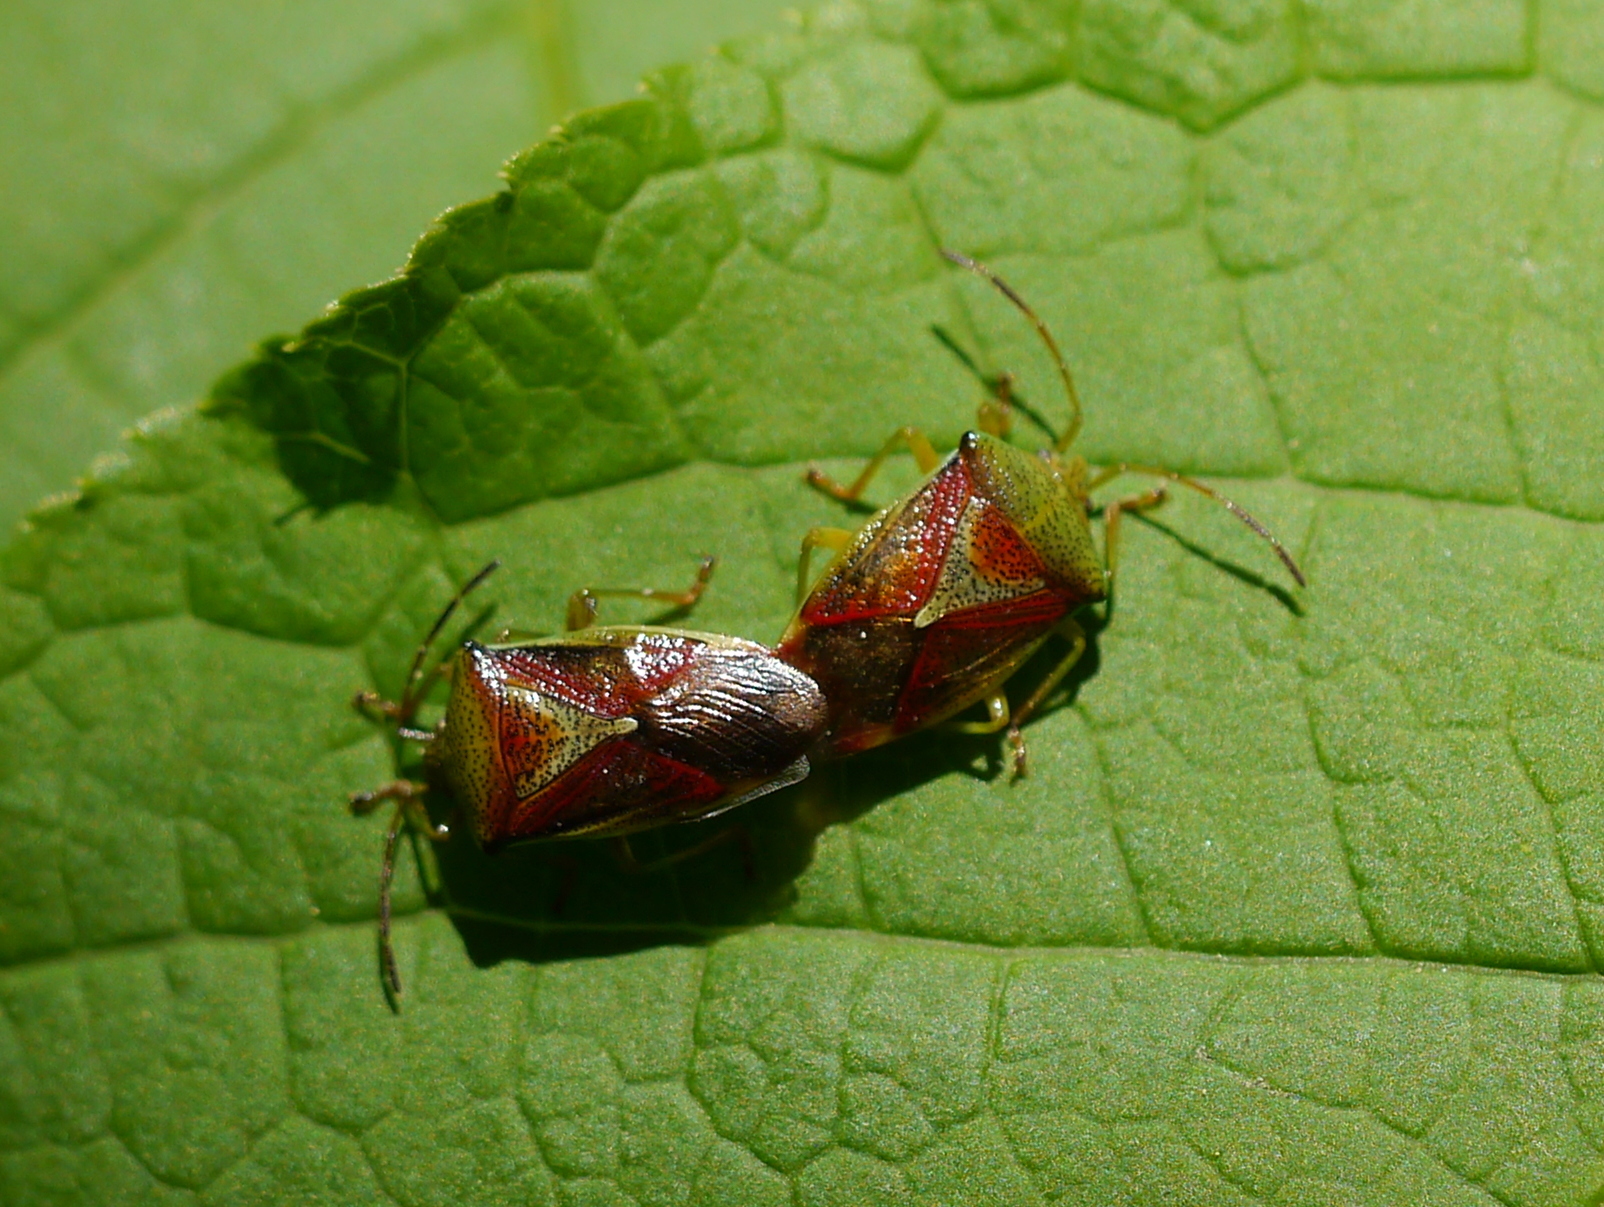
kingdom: Animalia
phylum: Arthropoda
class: Insecta
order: Hemiptera
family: Acanthosomatidae
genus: Elasmostethus
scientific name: Elasmostethus interstinctus
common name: Birch shieldbug
